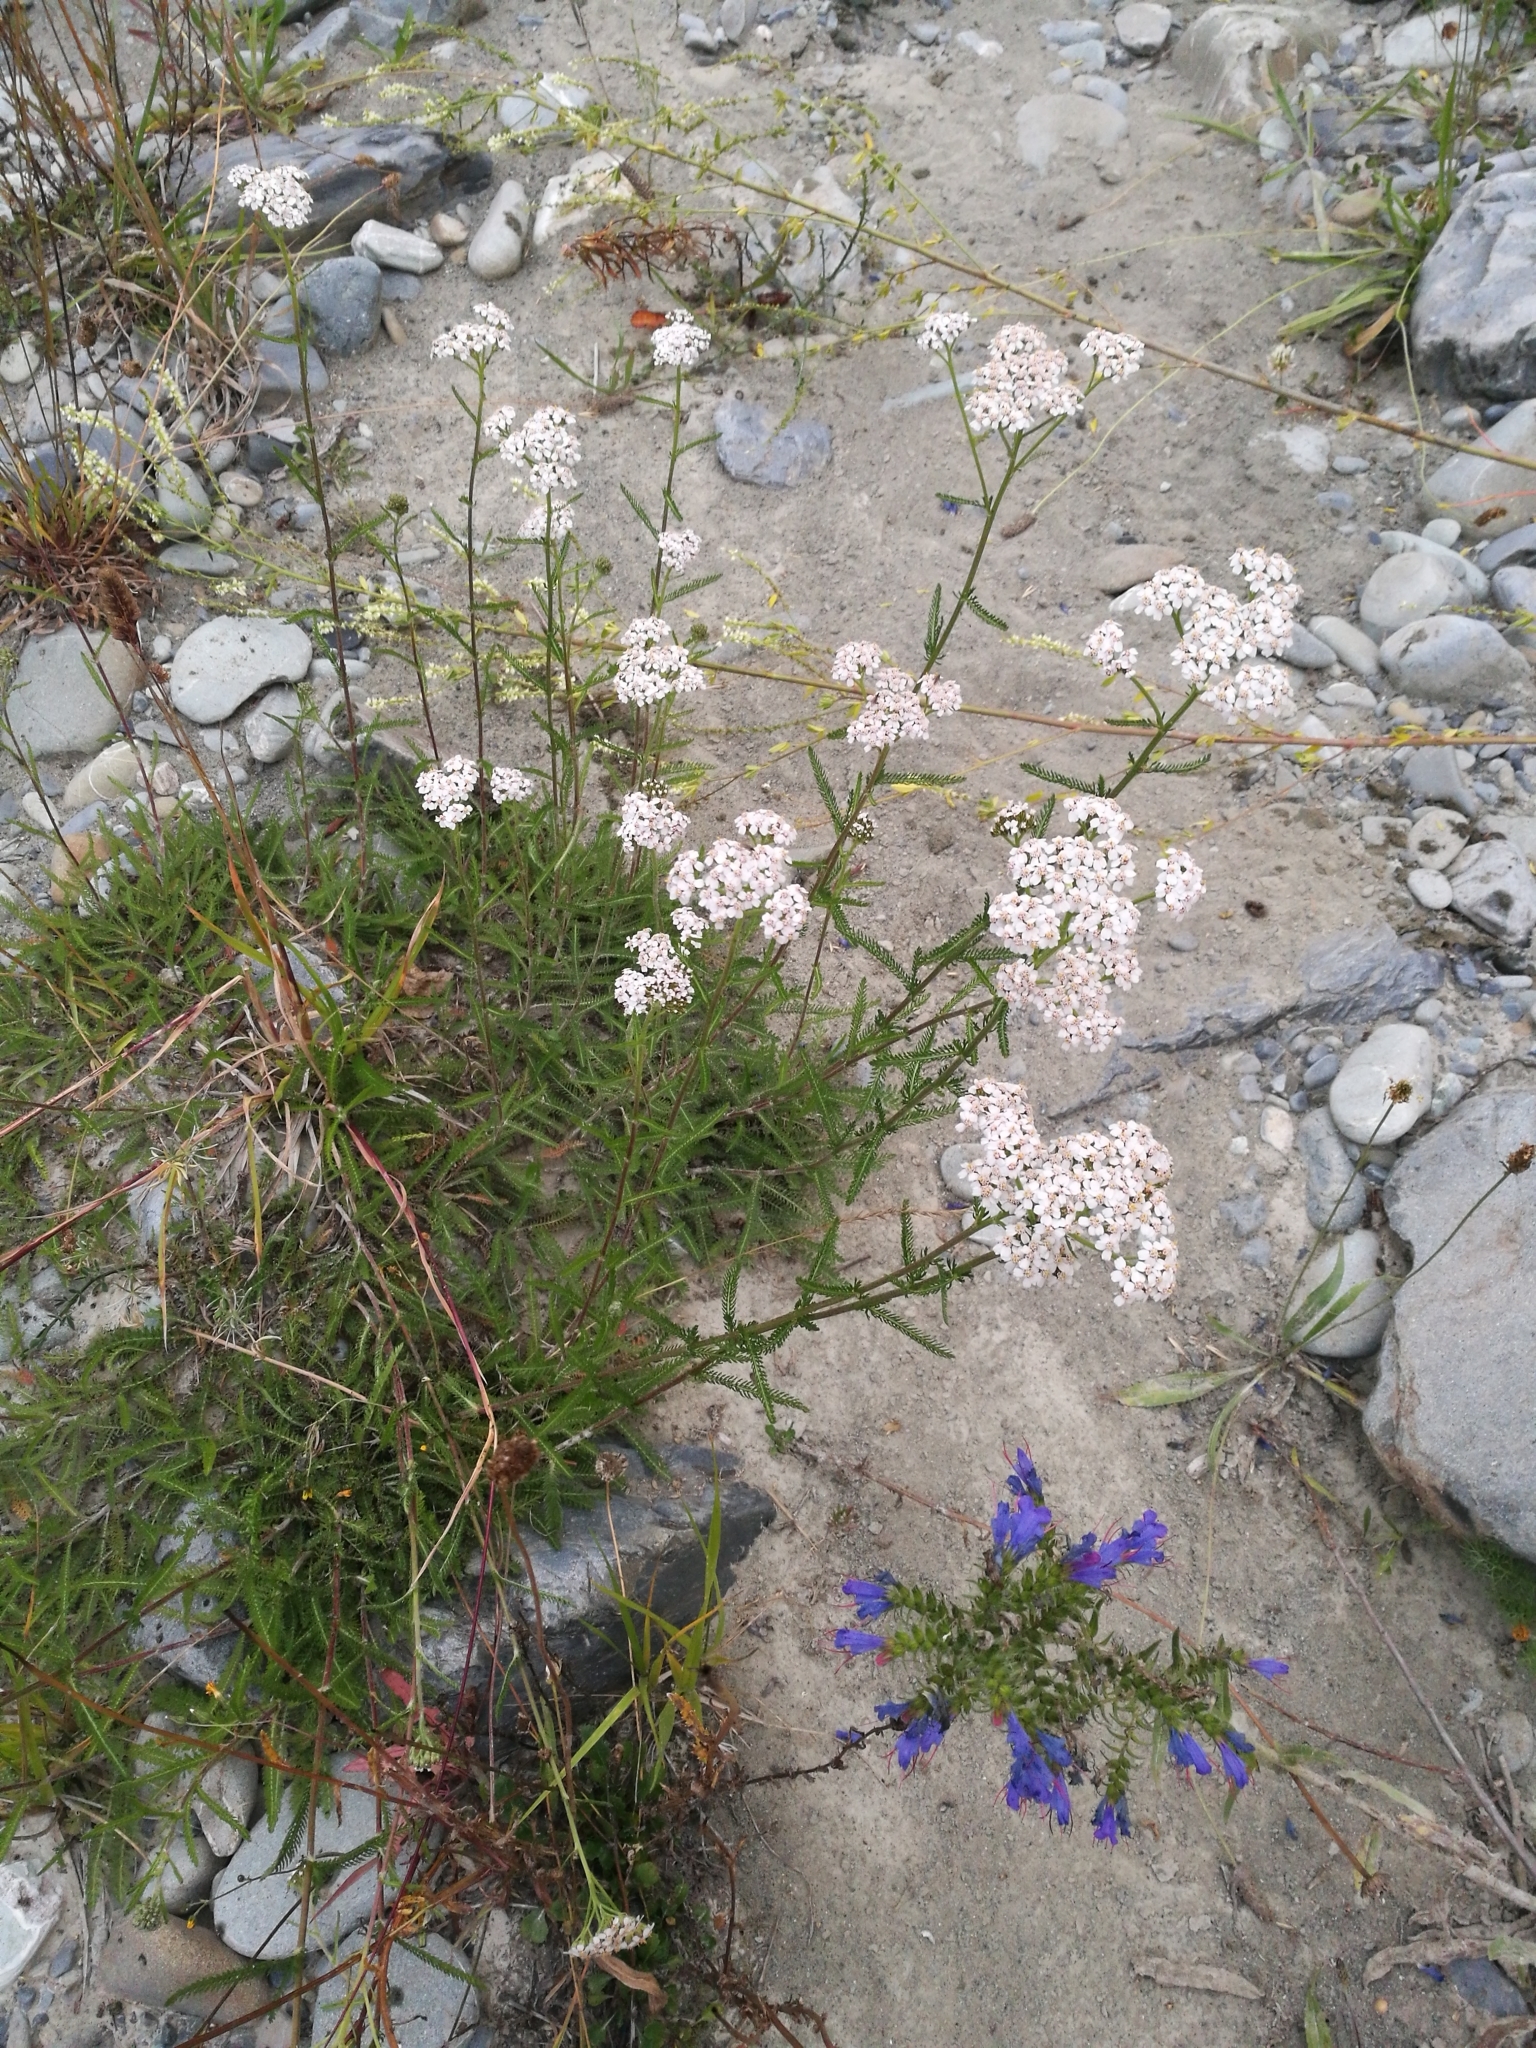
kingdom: Plantae
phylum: Tracheophyta
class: Magnoliopsida
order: Asterales
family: Asteraceae
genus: Achillea
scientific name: Achillea millefolium
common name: Yarrow
